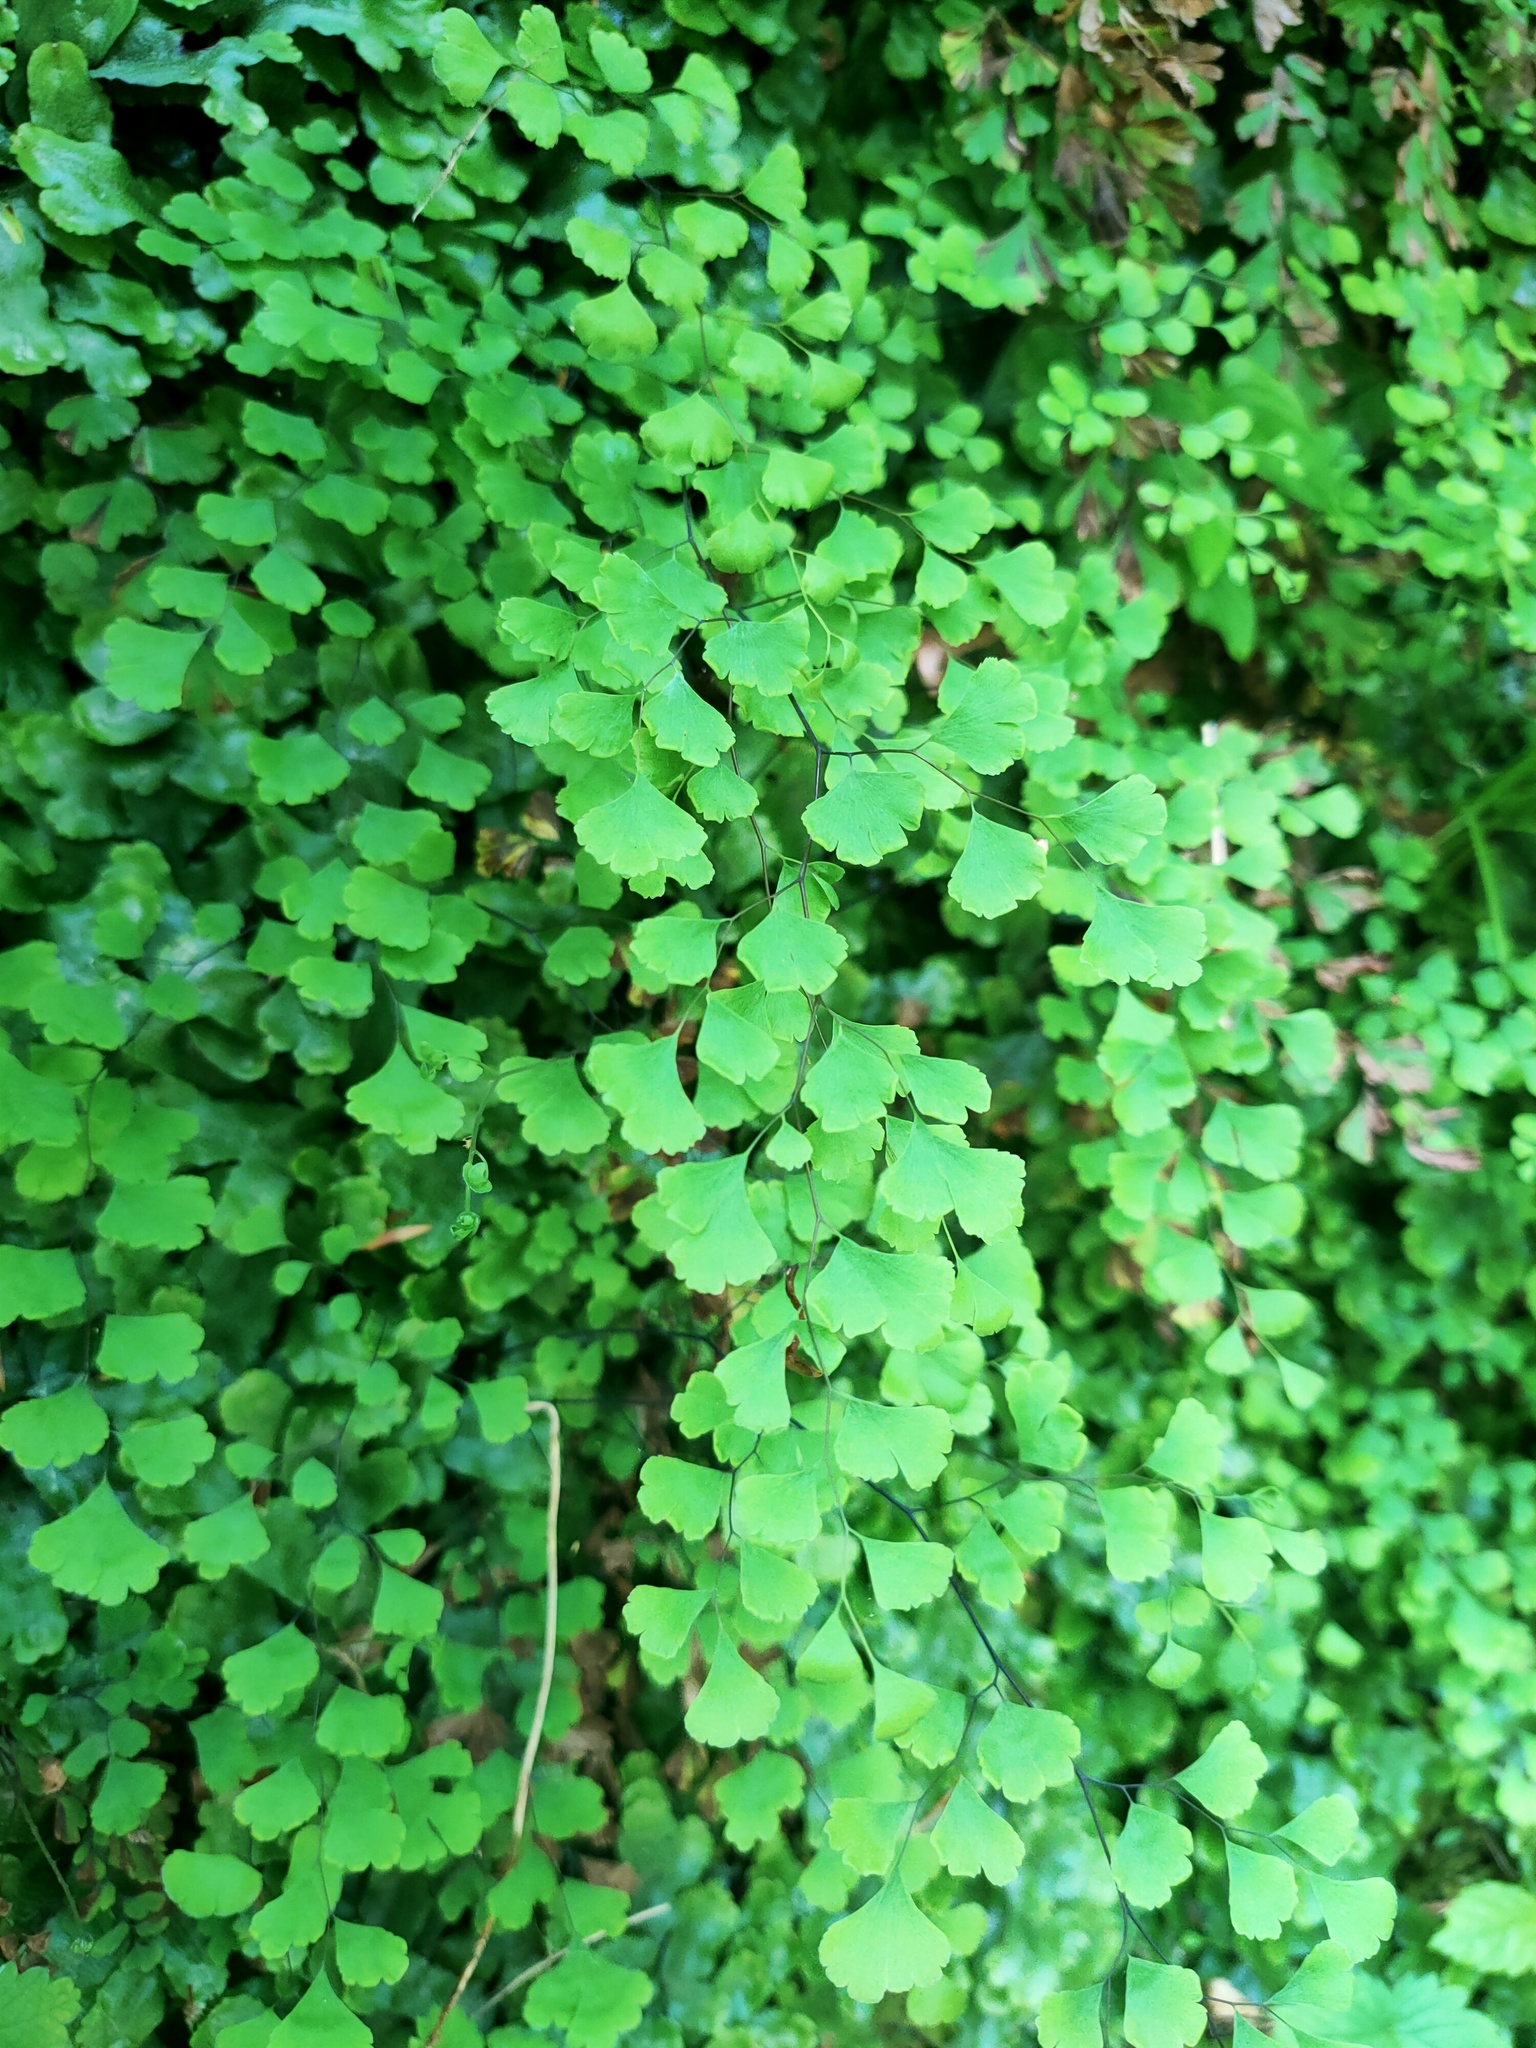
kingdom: Plantae
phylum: Tracheophyta
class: Polypodiopsida
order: Polypodiales
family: Pteridaceae
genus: Adiantum
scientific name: Adiantum capillus-veneris
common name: Maidenhair fern
